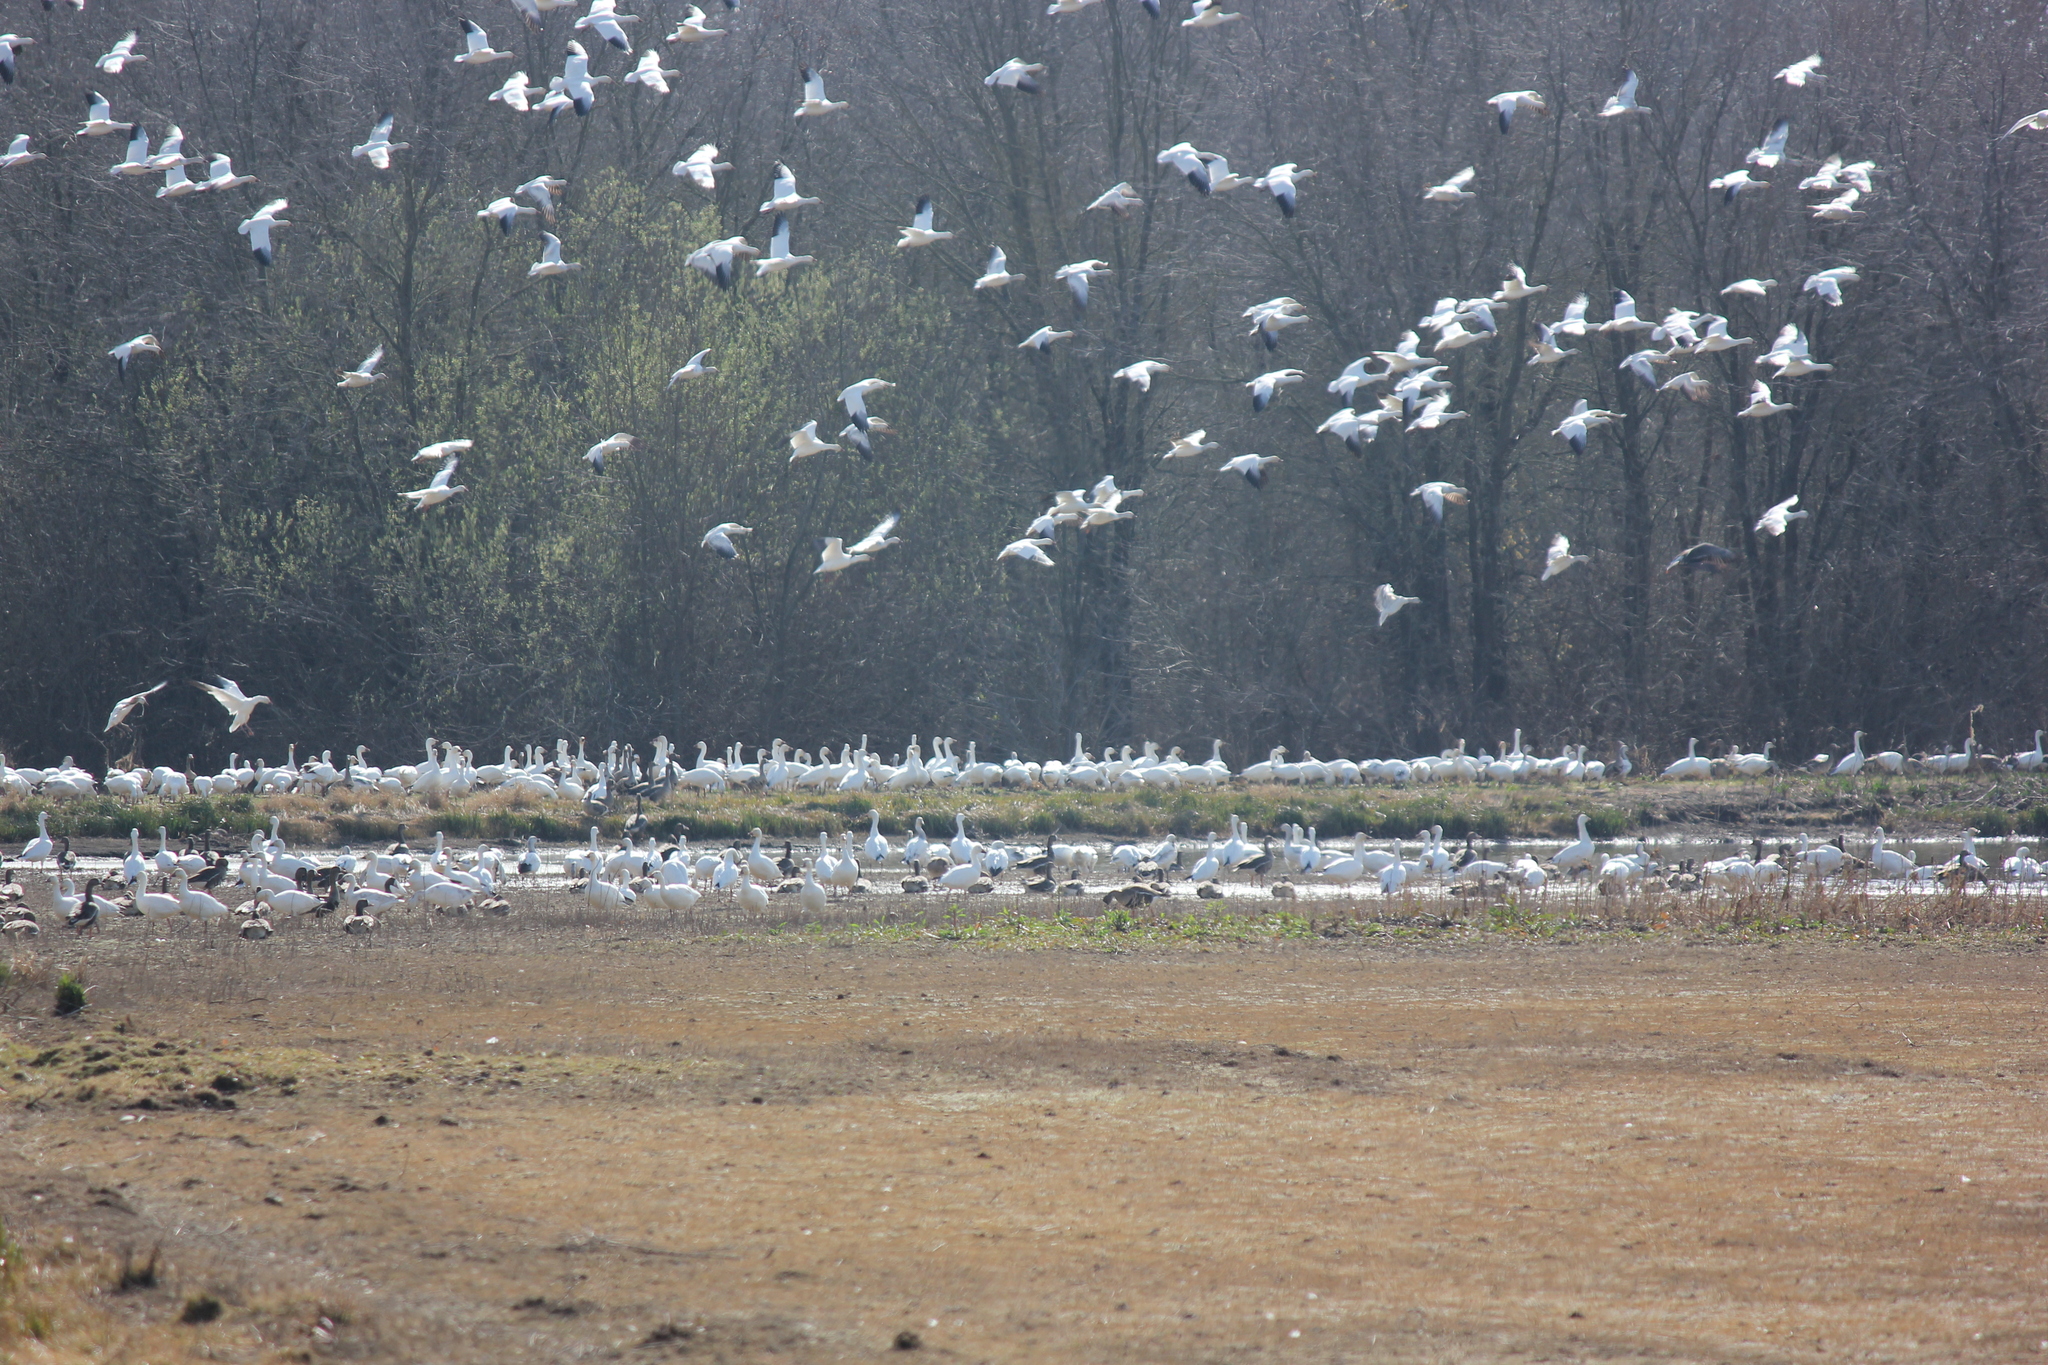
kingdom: Animalia
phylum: Chordata
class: Aves
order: Anseriformes
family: Anatidae
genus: Anser
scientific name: Anser caerulescens
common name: Snow goose
